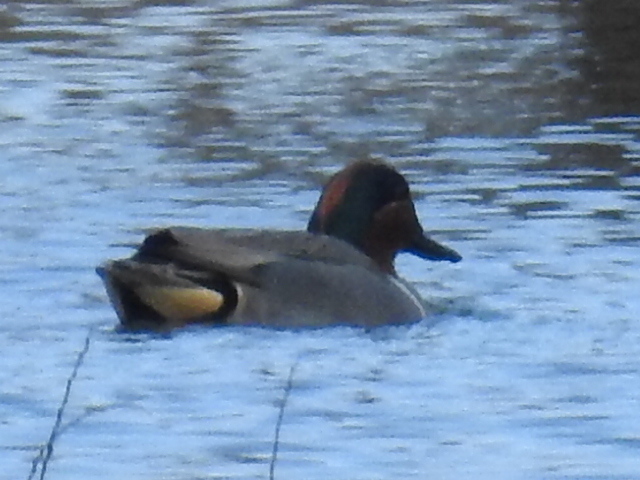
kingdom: Animalia
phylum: Chordata
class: Aves
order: Anseriformes
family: Anatidae
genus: Anas
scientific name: Anas crecca
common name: Eurasian teal
